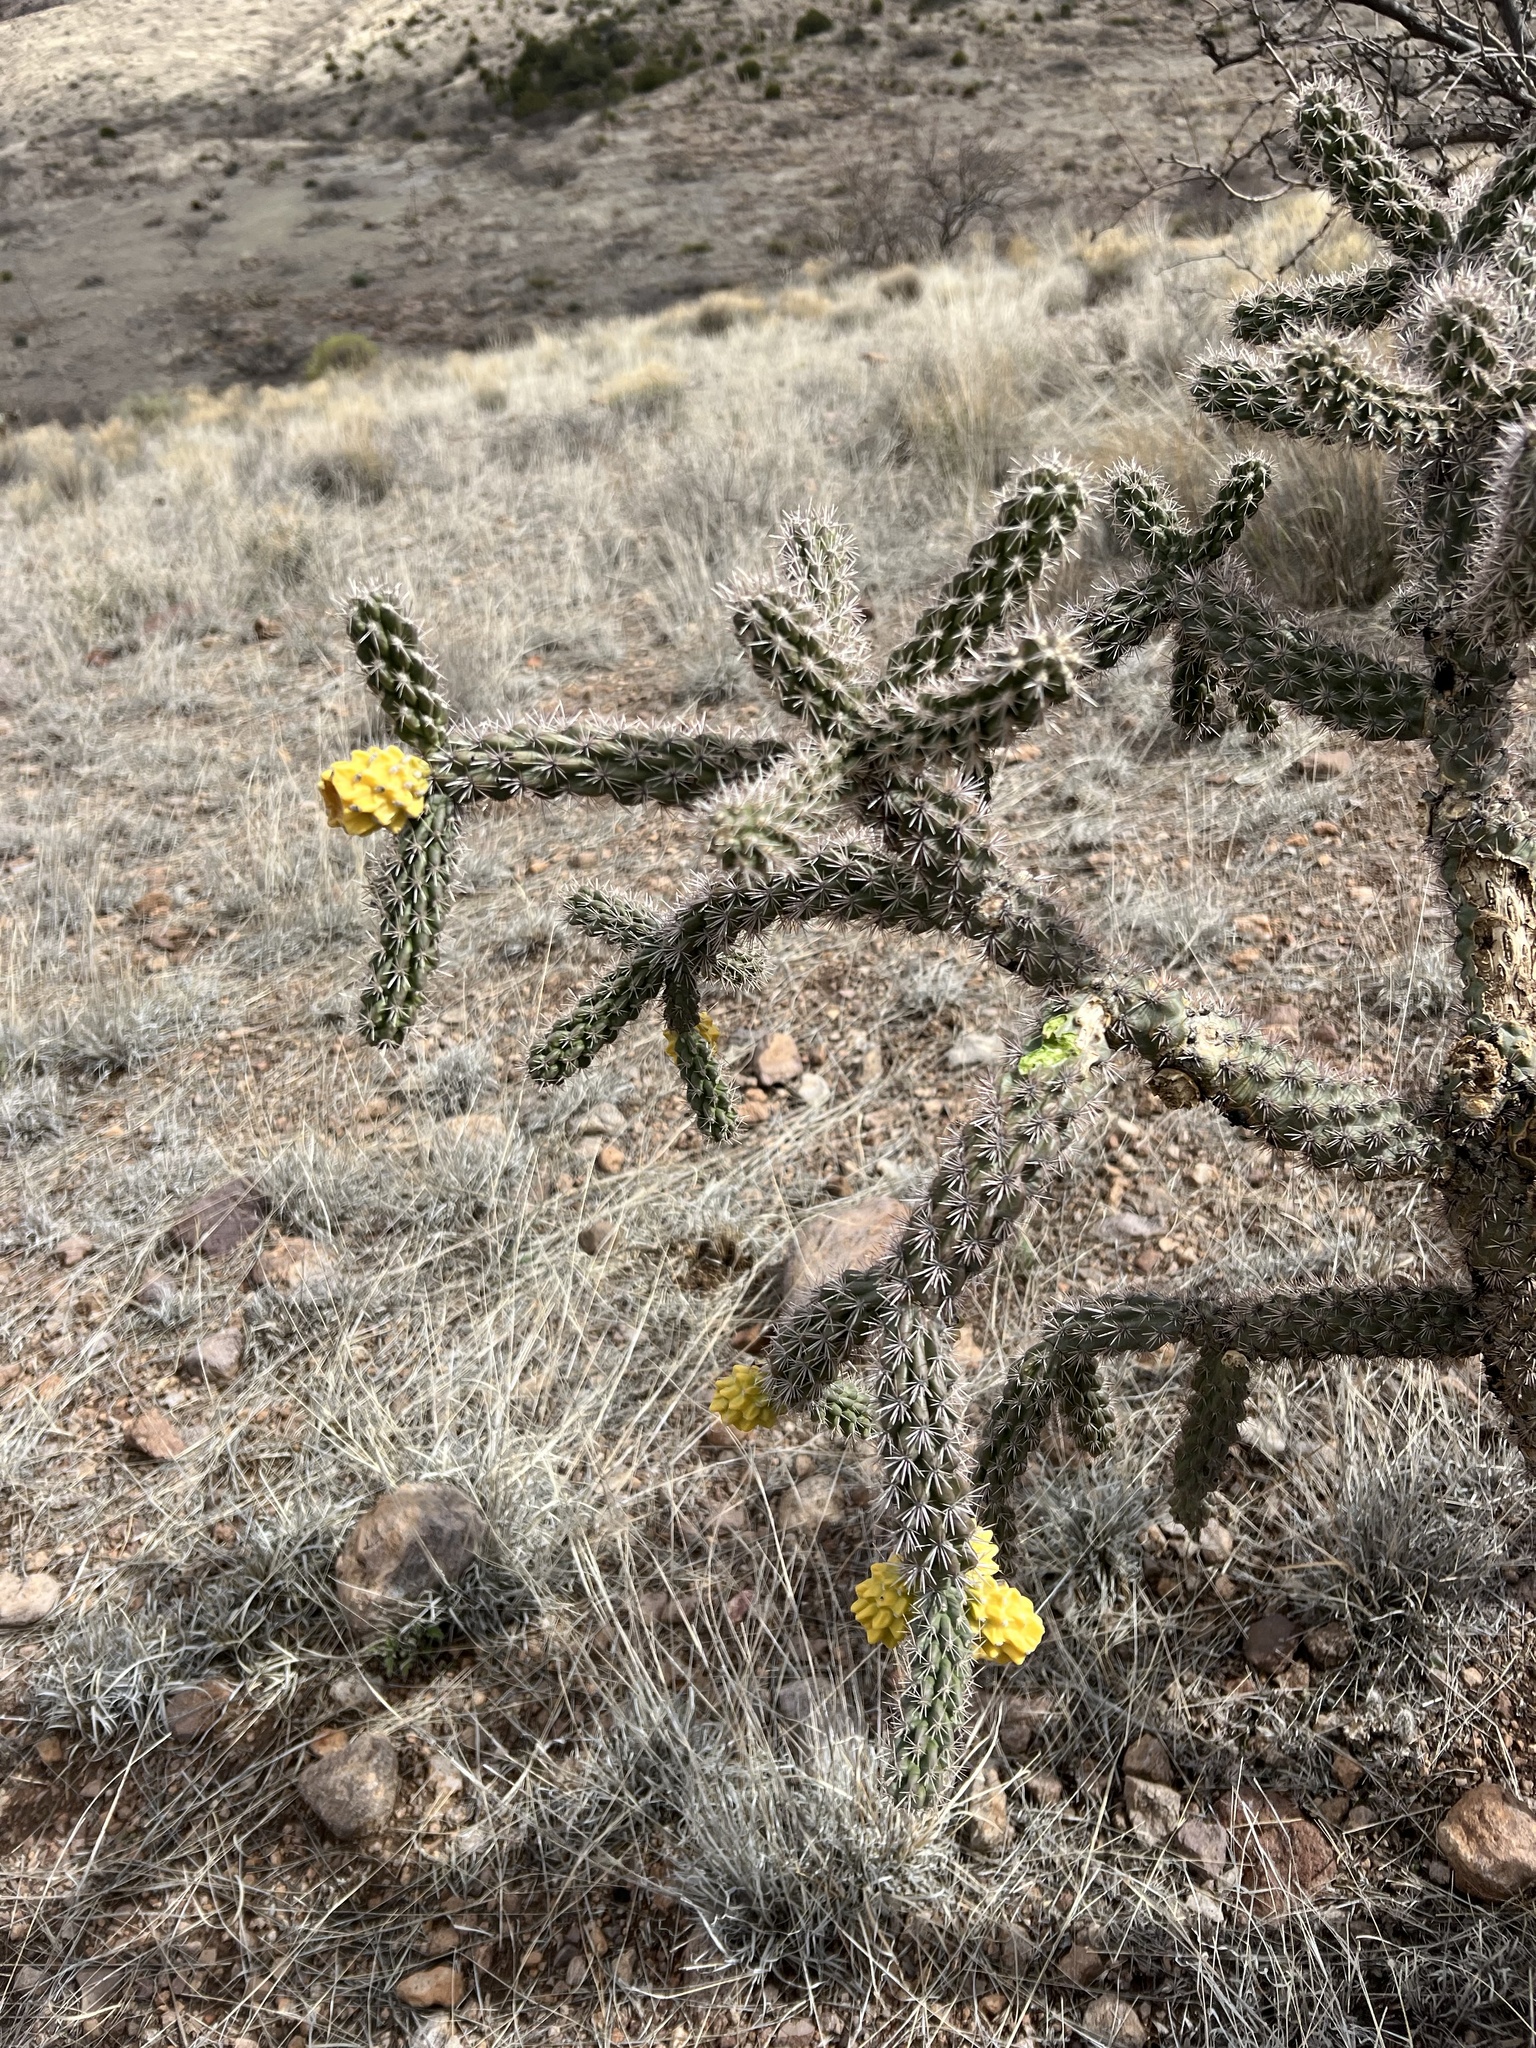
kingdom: Plantae
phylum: Tracheophyta
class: Magnoliopsida
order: Caryophyllales
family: Cactaceae
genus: Cylindropuntia
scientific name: Cylindropuntia imbricata
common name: Candelabrum cactus
